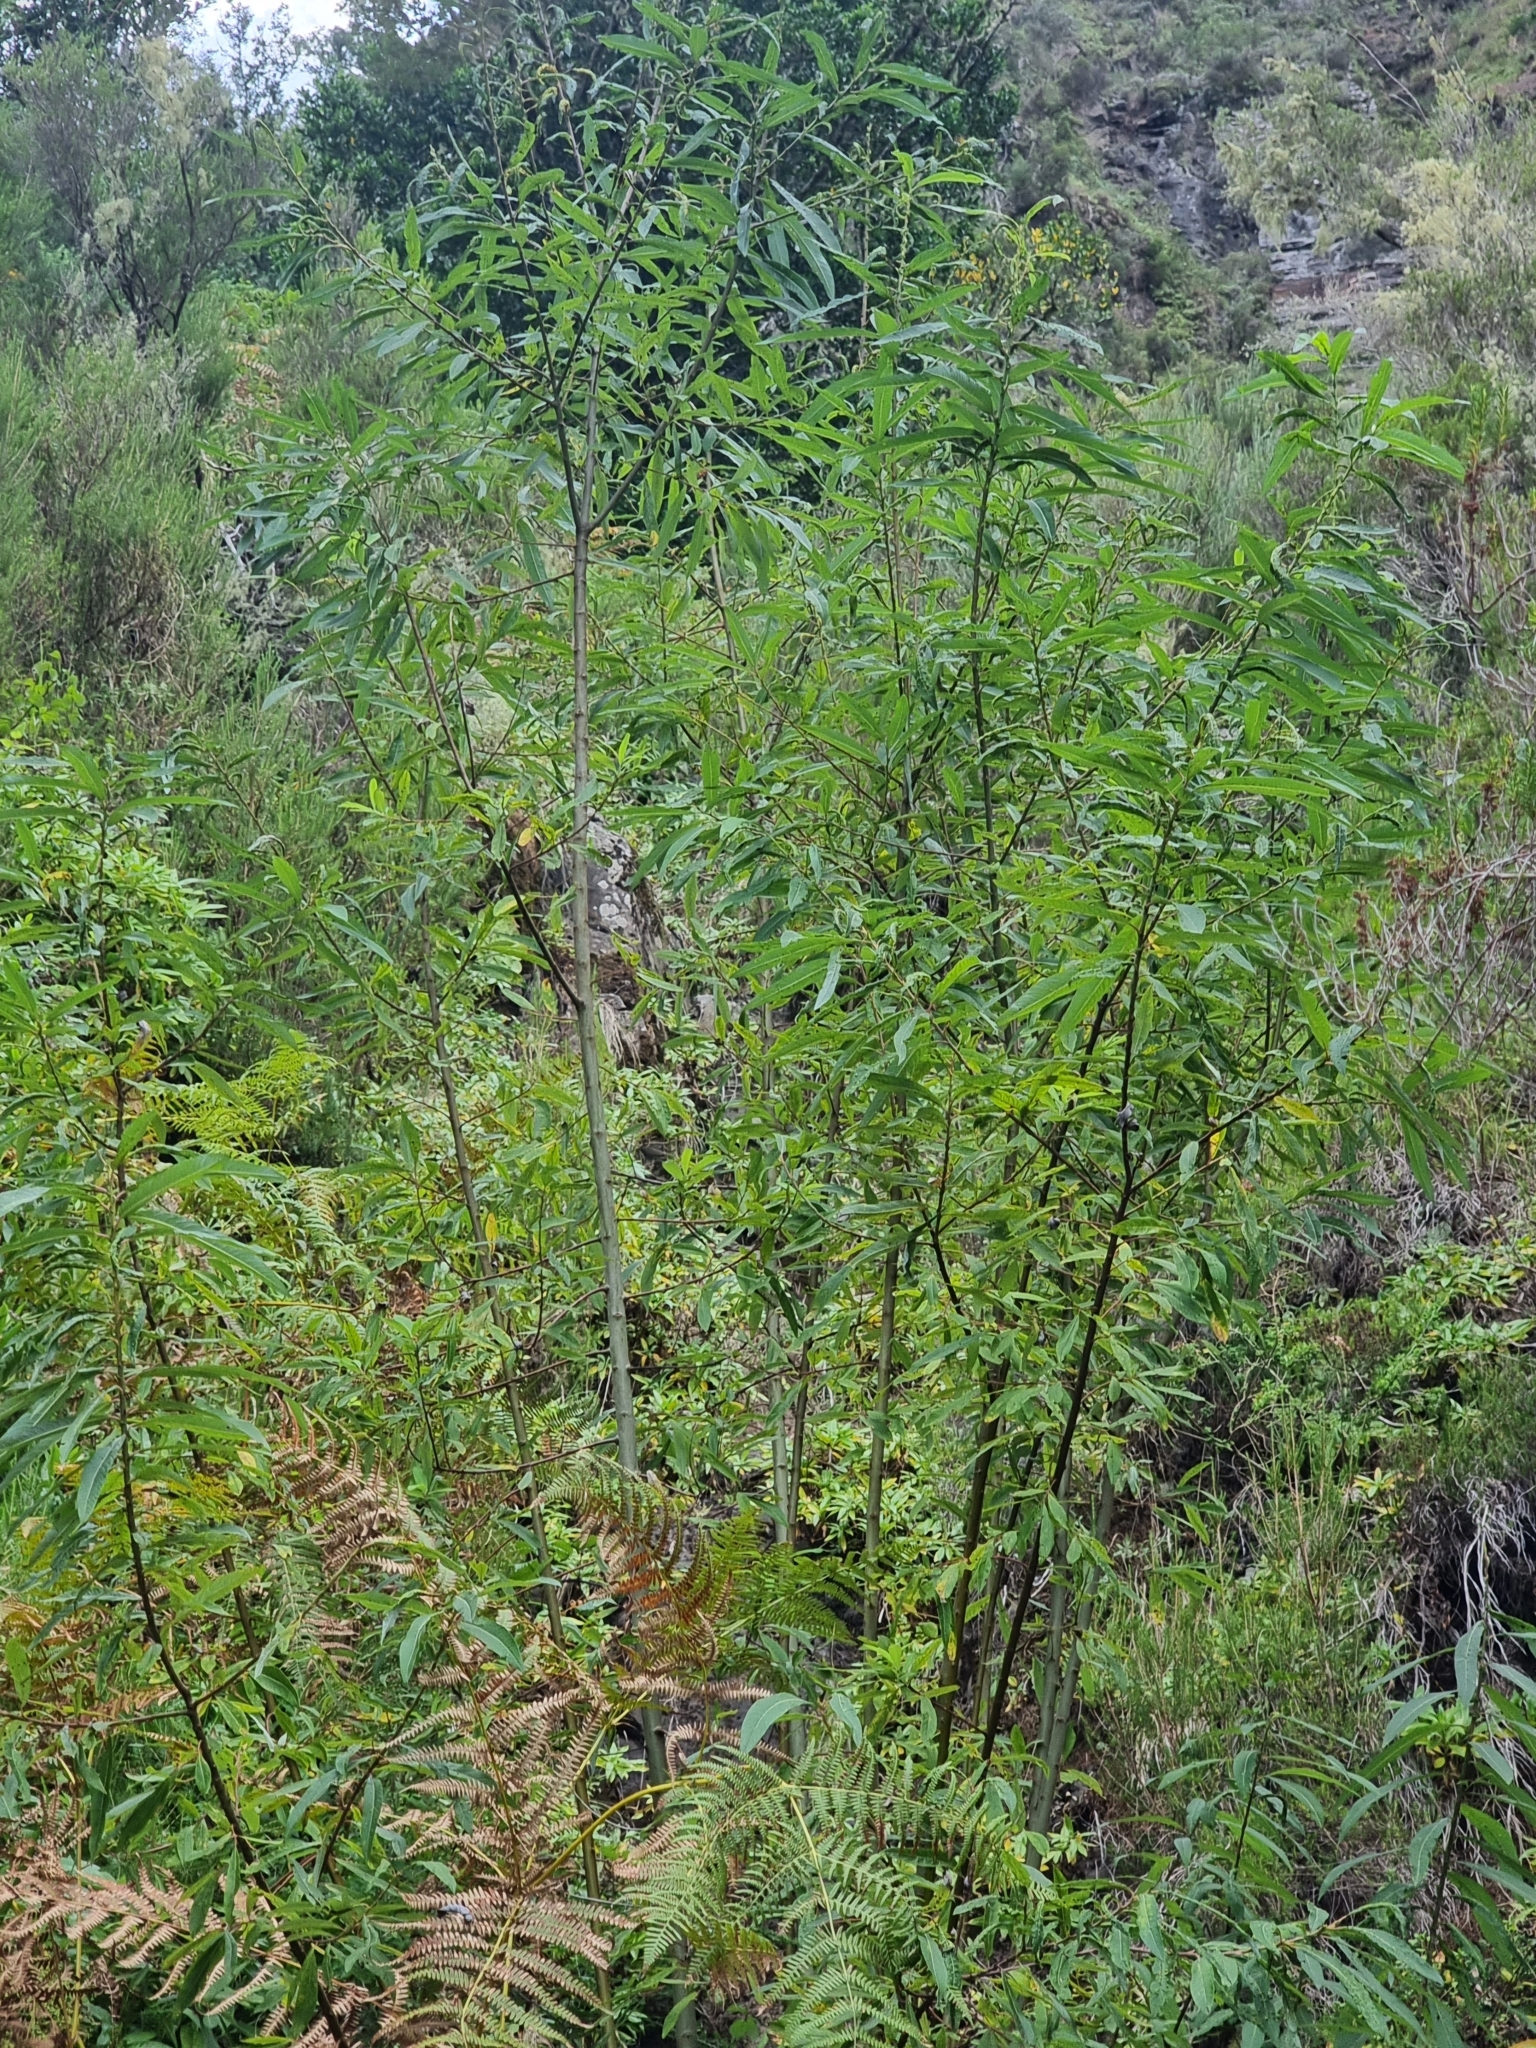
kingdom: Plantae
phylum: Tracheophyta
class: Magnoliopsida
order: Malpighiales
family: Salicaceae
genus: Salix
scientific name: Salix canariensis
